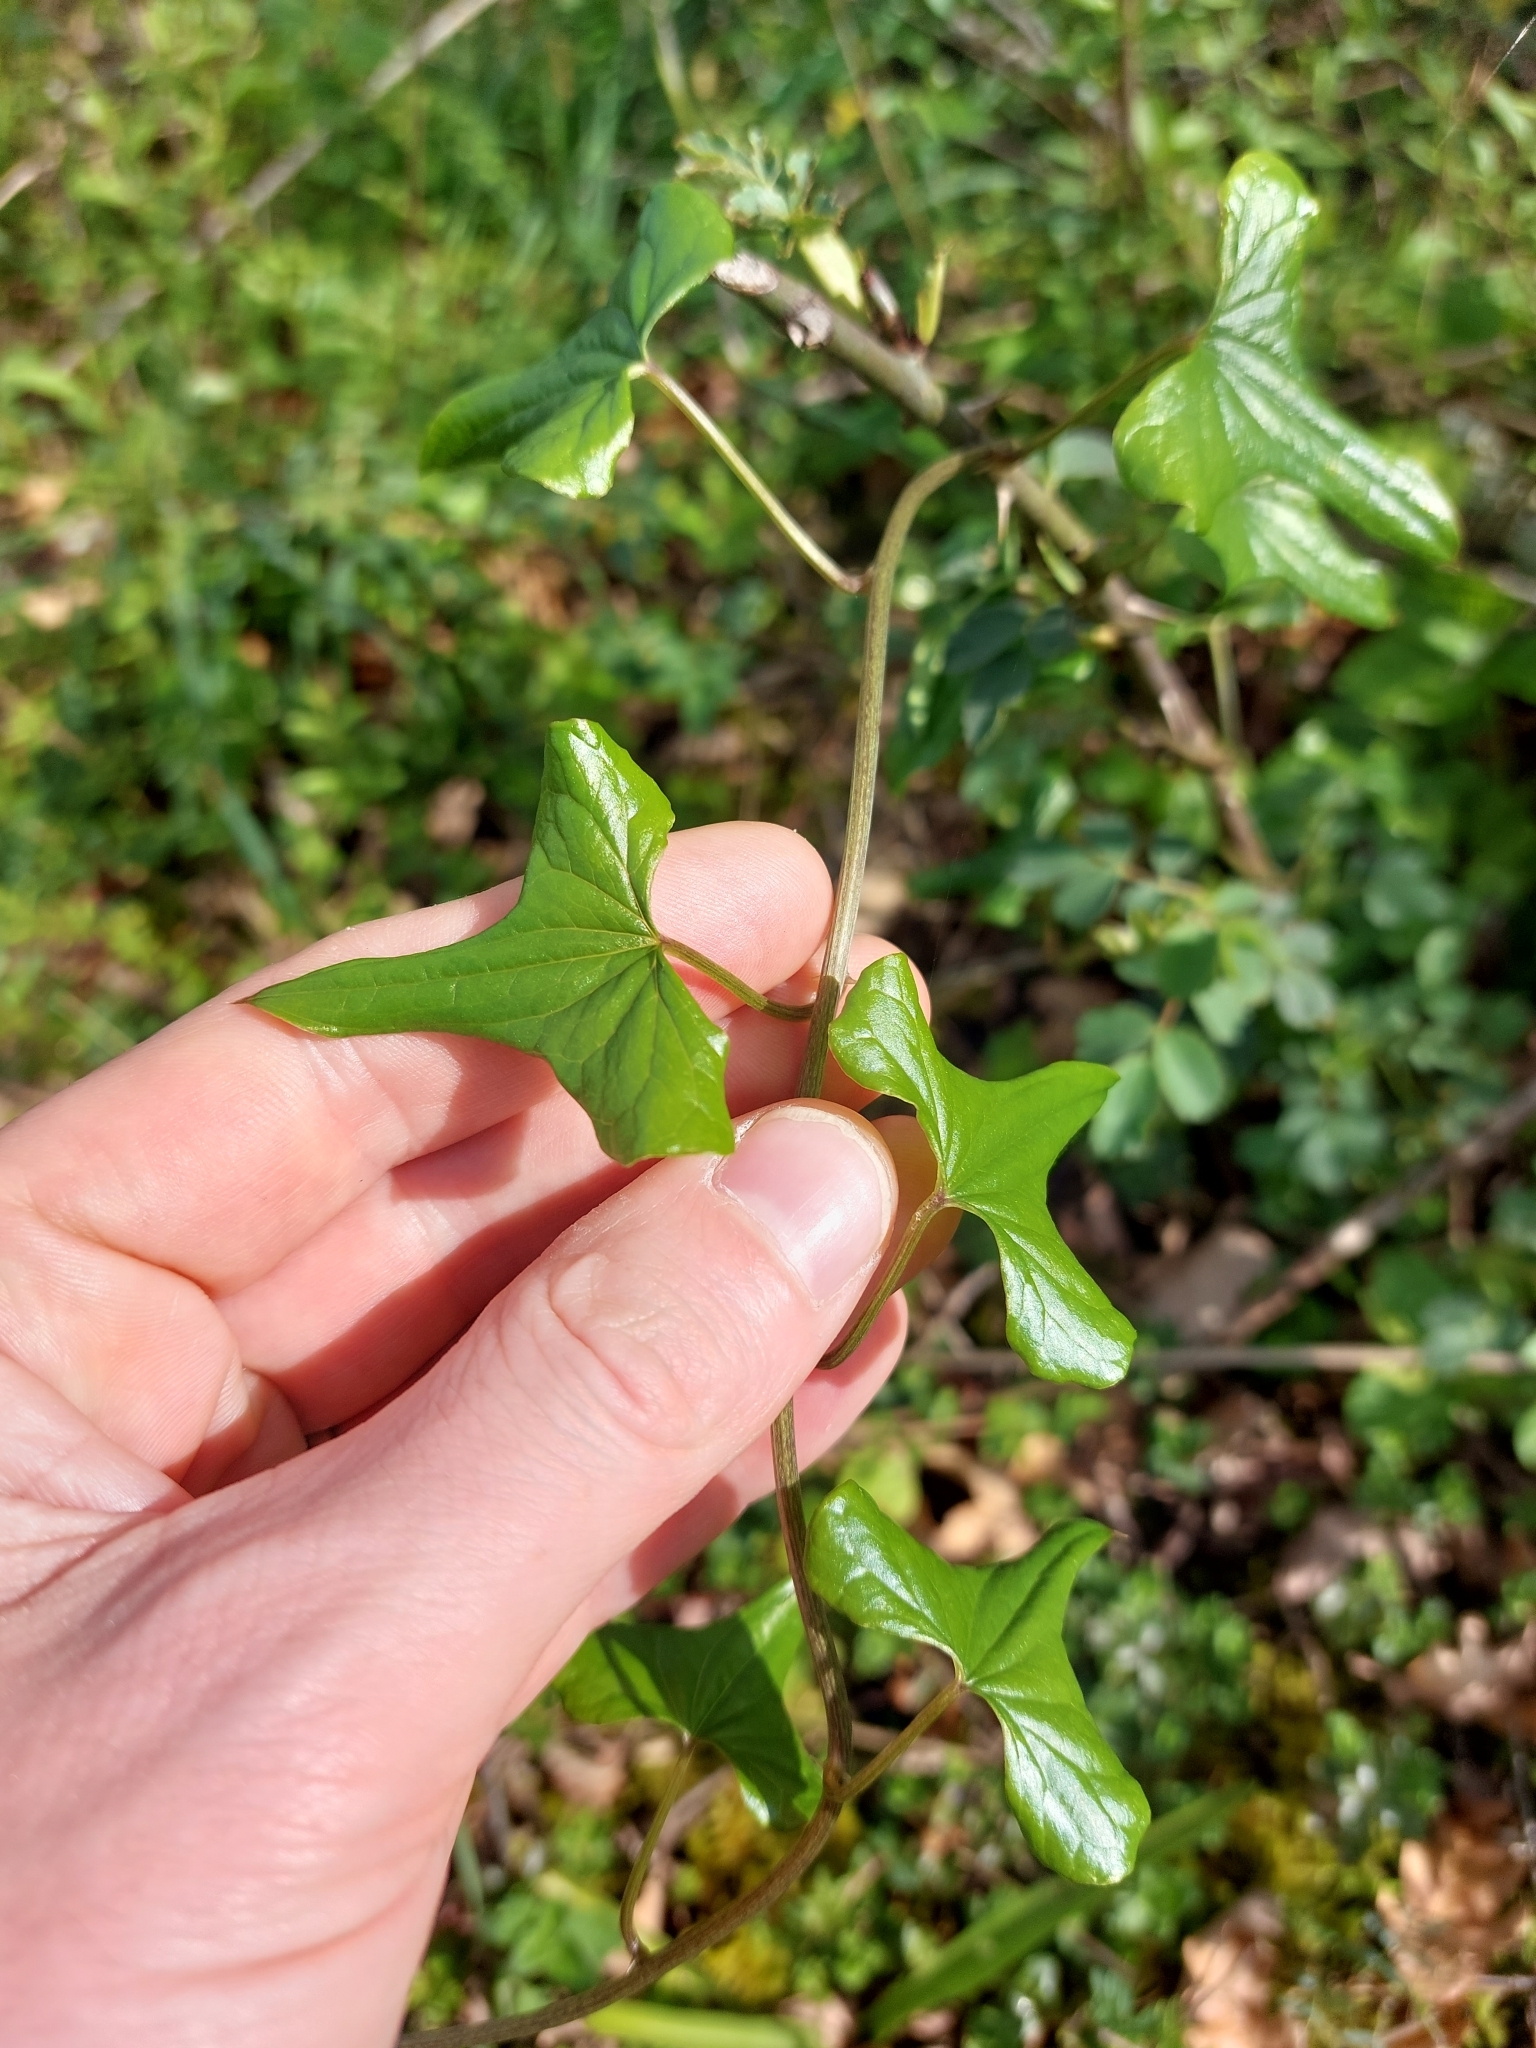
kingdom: Plantae
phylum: Tracheophyta
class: Liliopsida
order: Dioscoreales
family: Dioscoreaceae
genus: Dioscorea
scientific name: Dioscorea communis
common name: Black-bindweed
